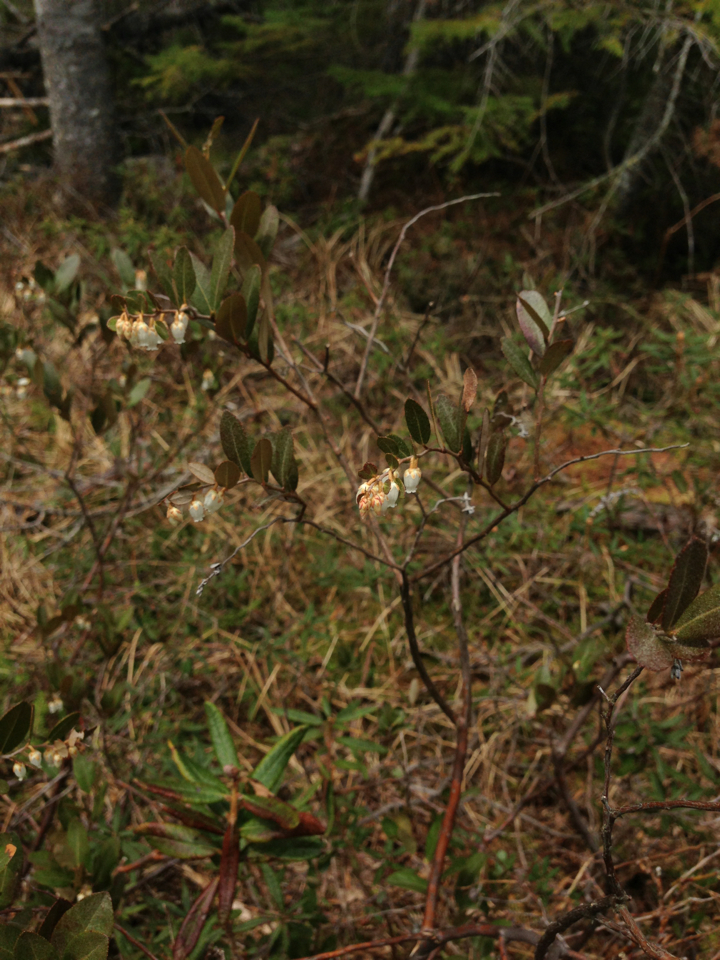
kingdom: Plantae
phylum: Tracheophyta
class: Magnoliopsida
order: Ericales
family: Ericaceae
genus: Chamaedaphne
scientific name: Chamaedaphne calyculata
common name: Leatherleaf
